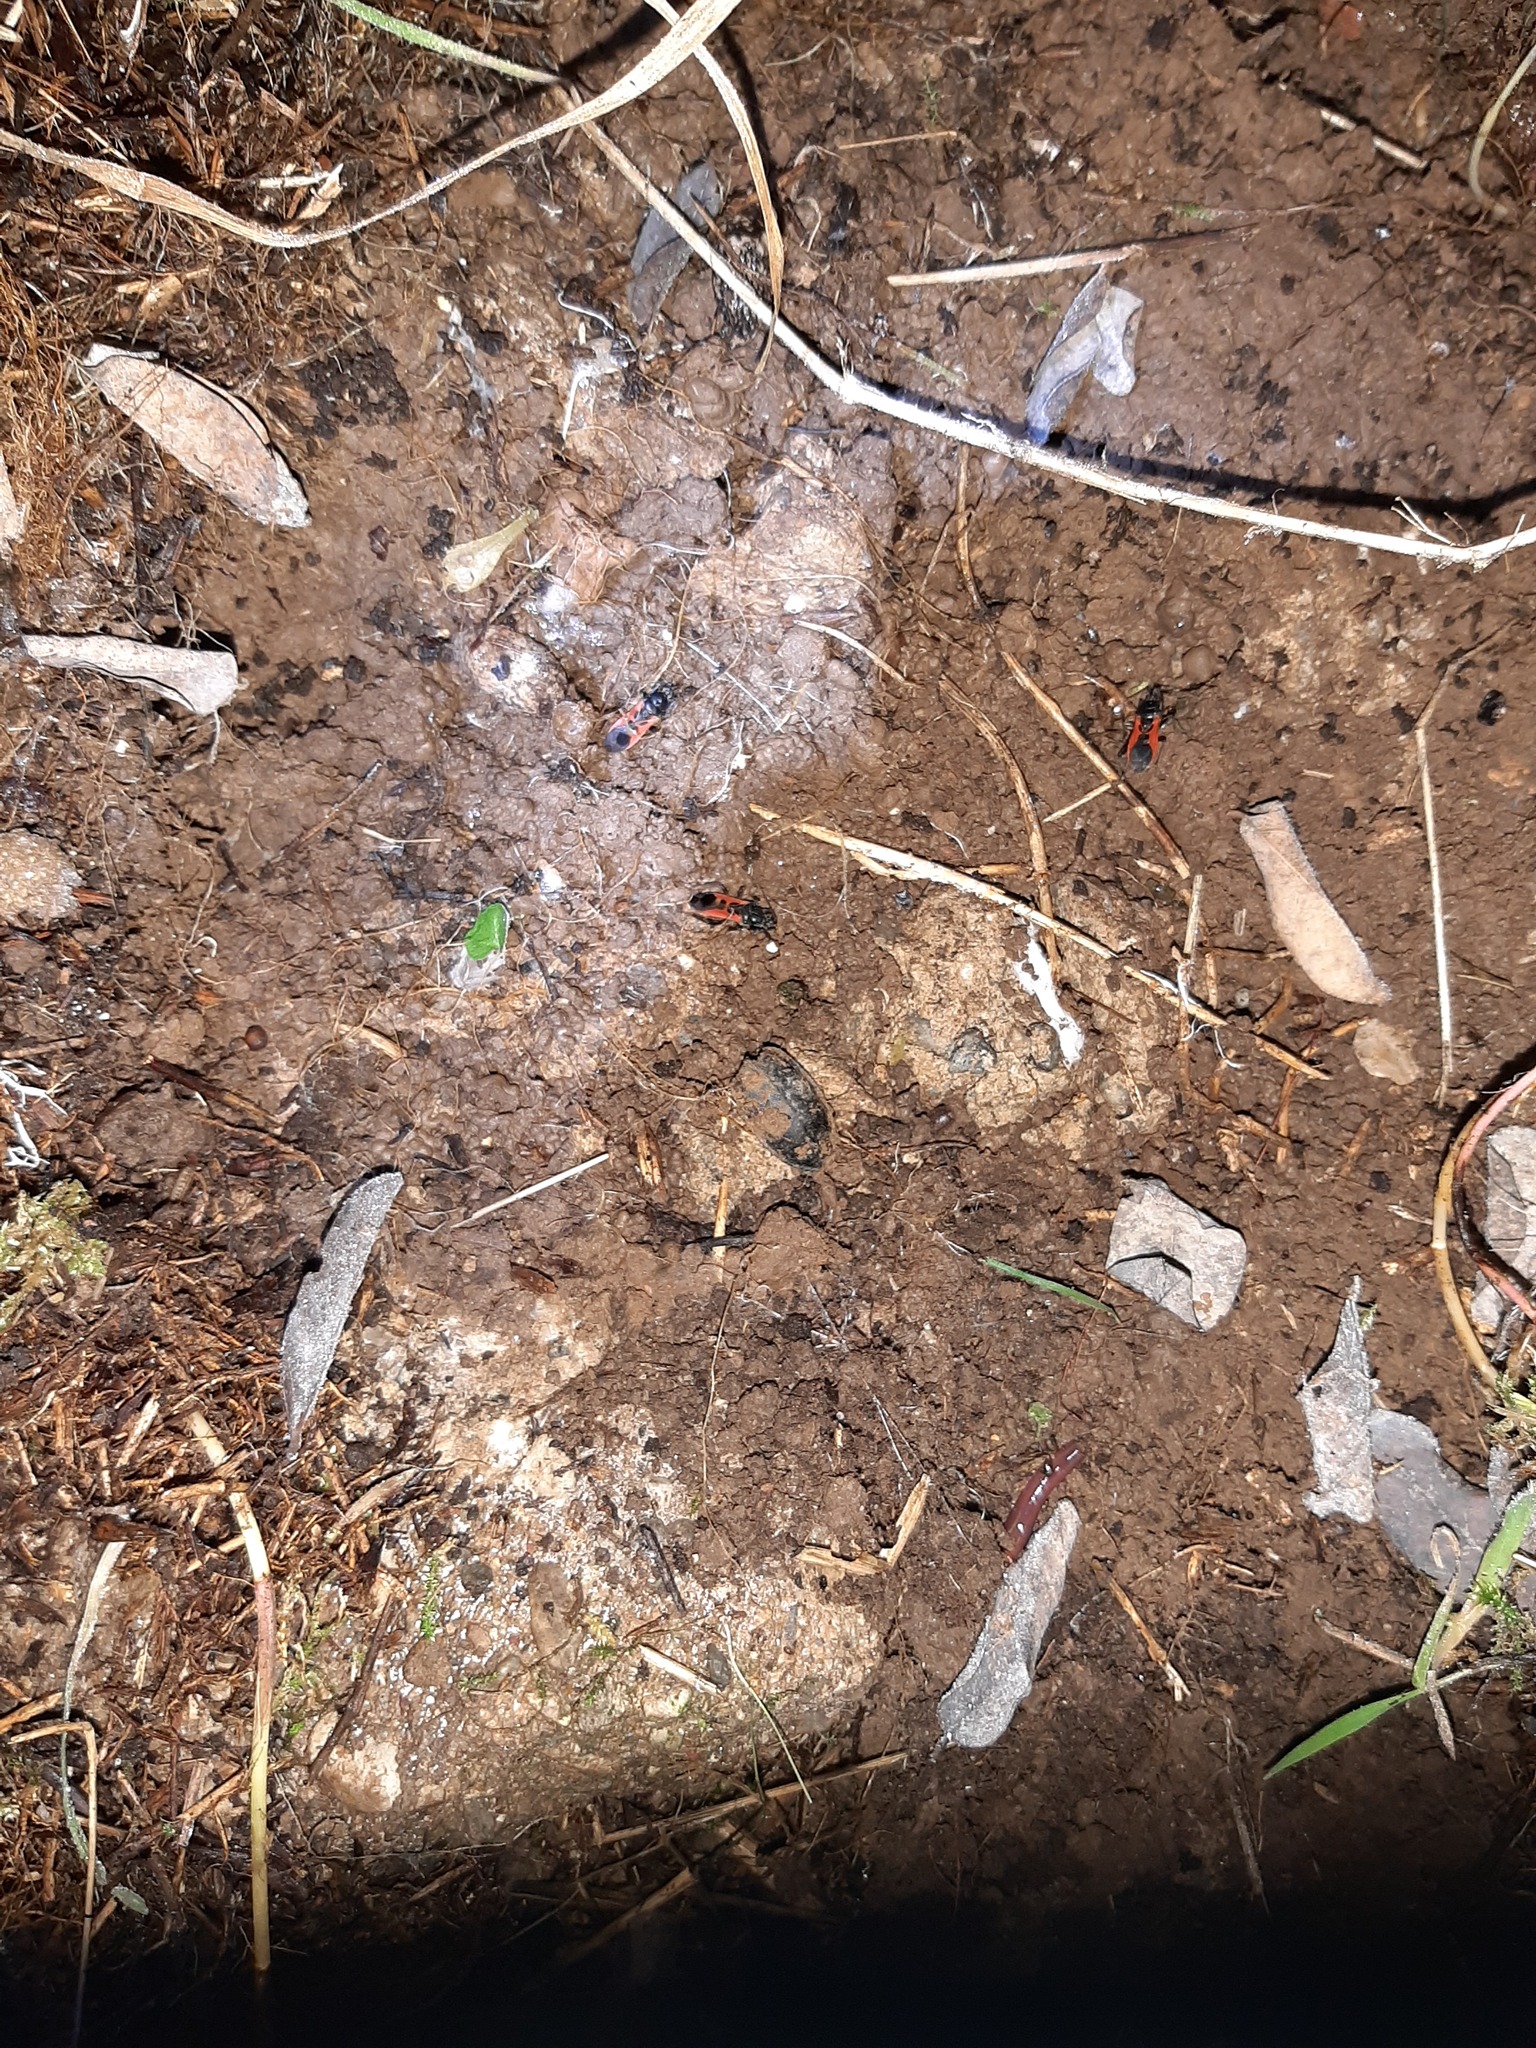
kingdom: Animalia
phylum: Arthropoda
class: Insecta
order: Hemiptera
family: Reduviidae
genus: Peirates
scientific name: Peirates hybridus
